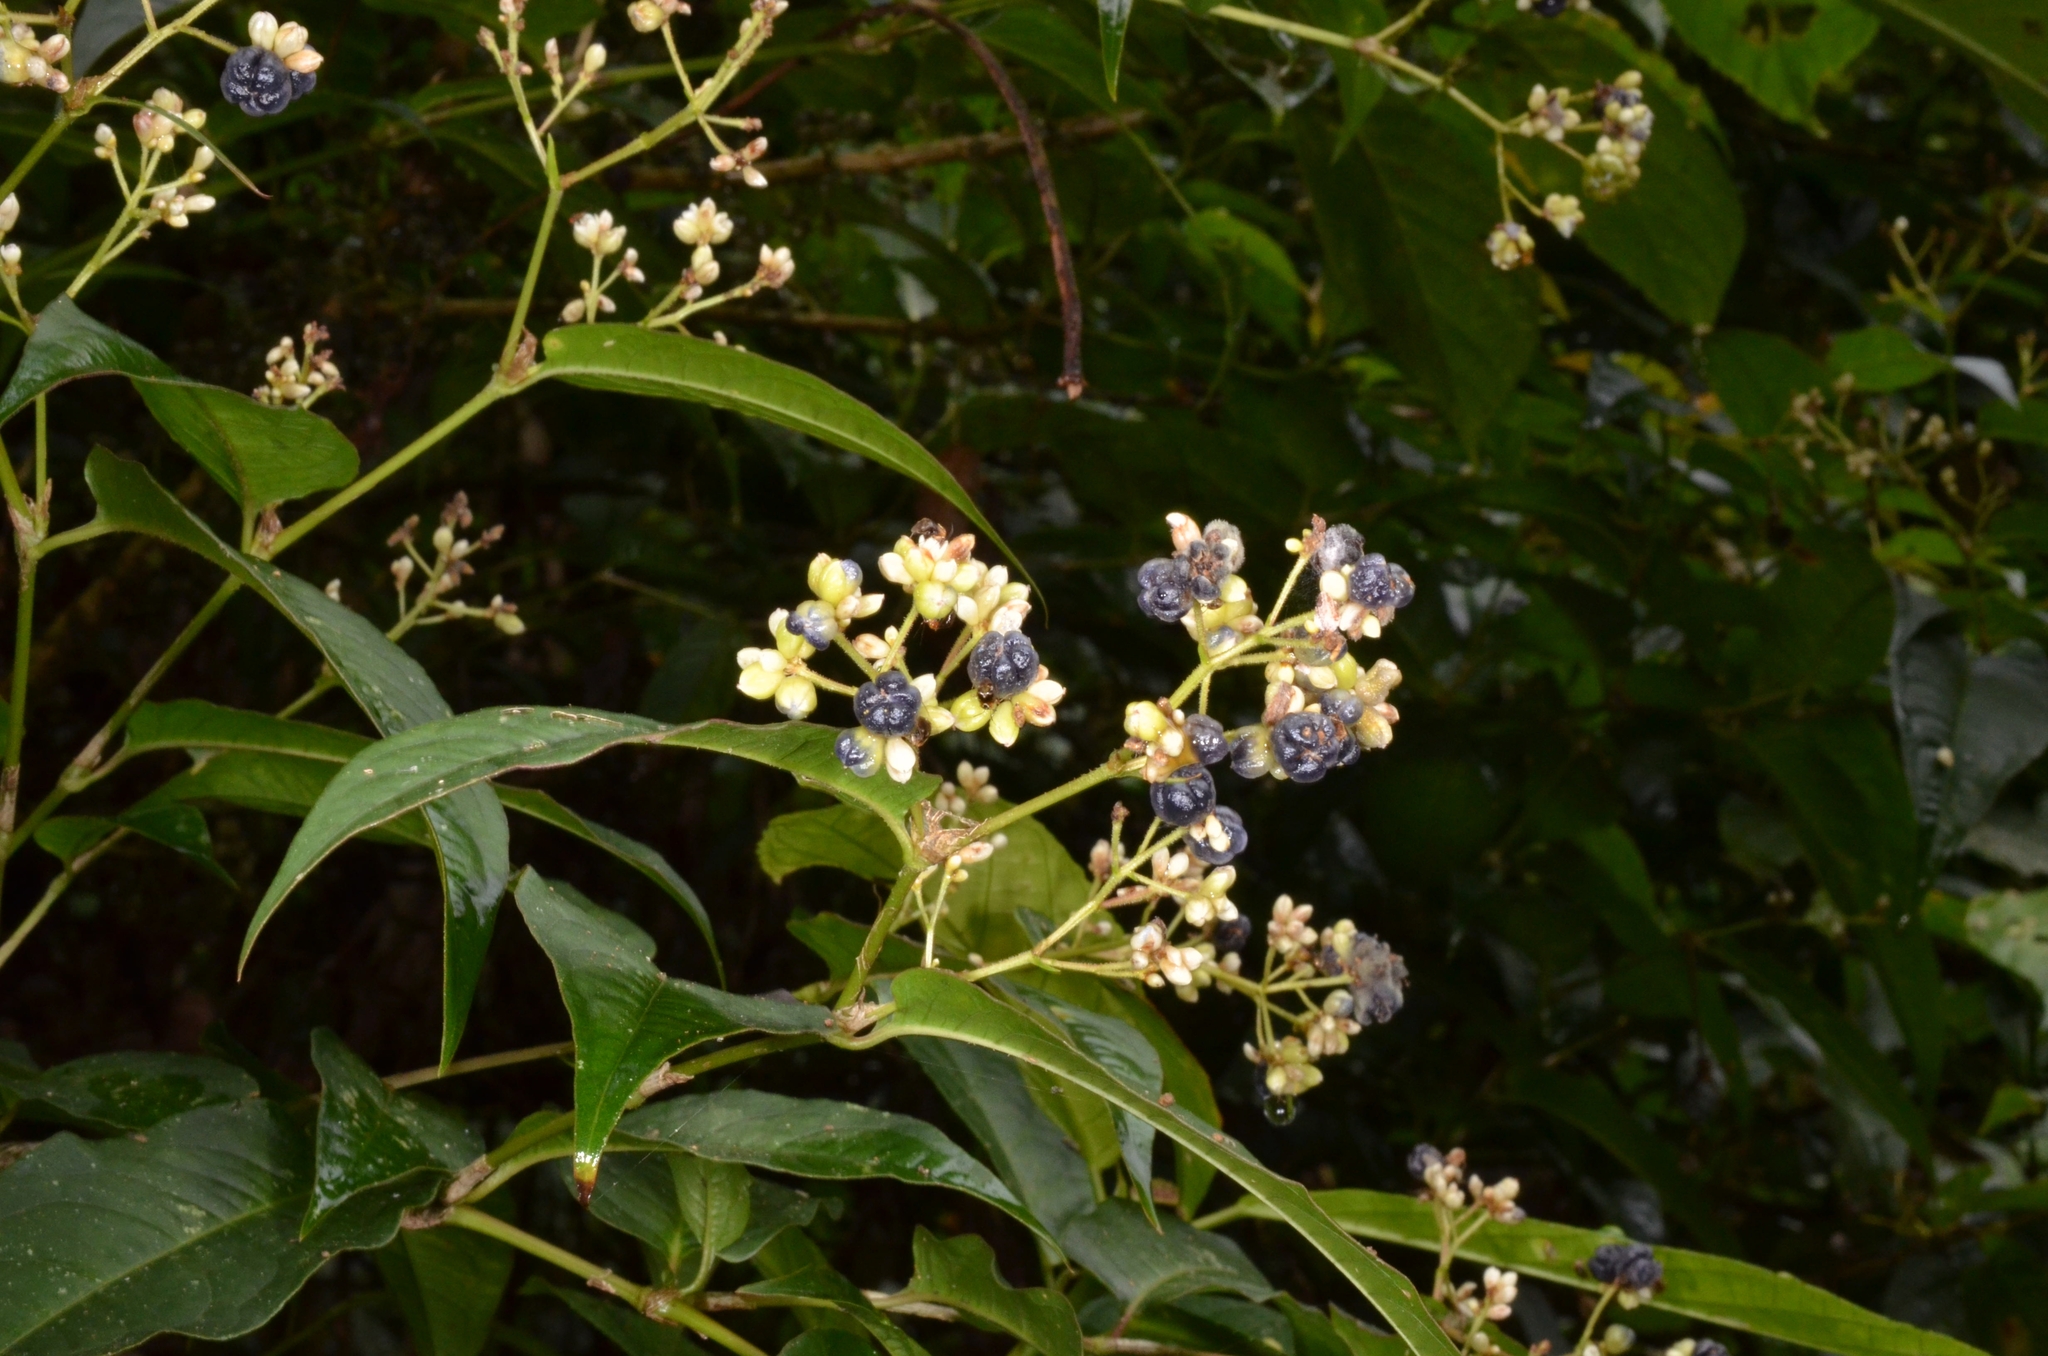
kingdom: Plantae
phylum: Tracheophyta
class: Magnoliopsida
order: Caryophyllales
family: Polygonaceae
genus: Persicaria
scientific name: Persicaria chinensis
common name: Chinese knotweed
